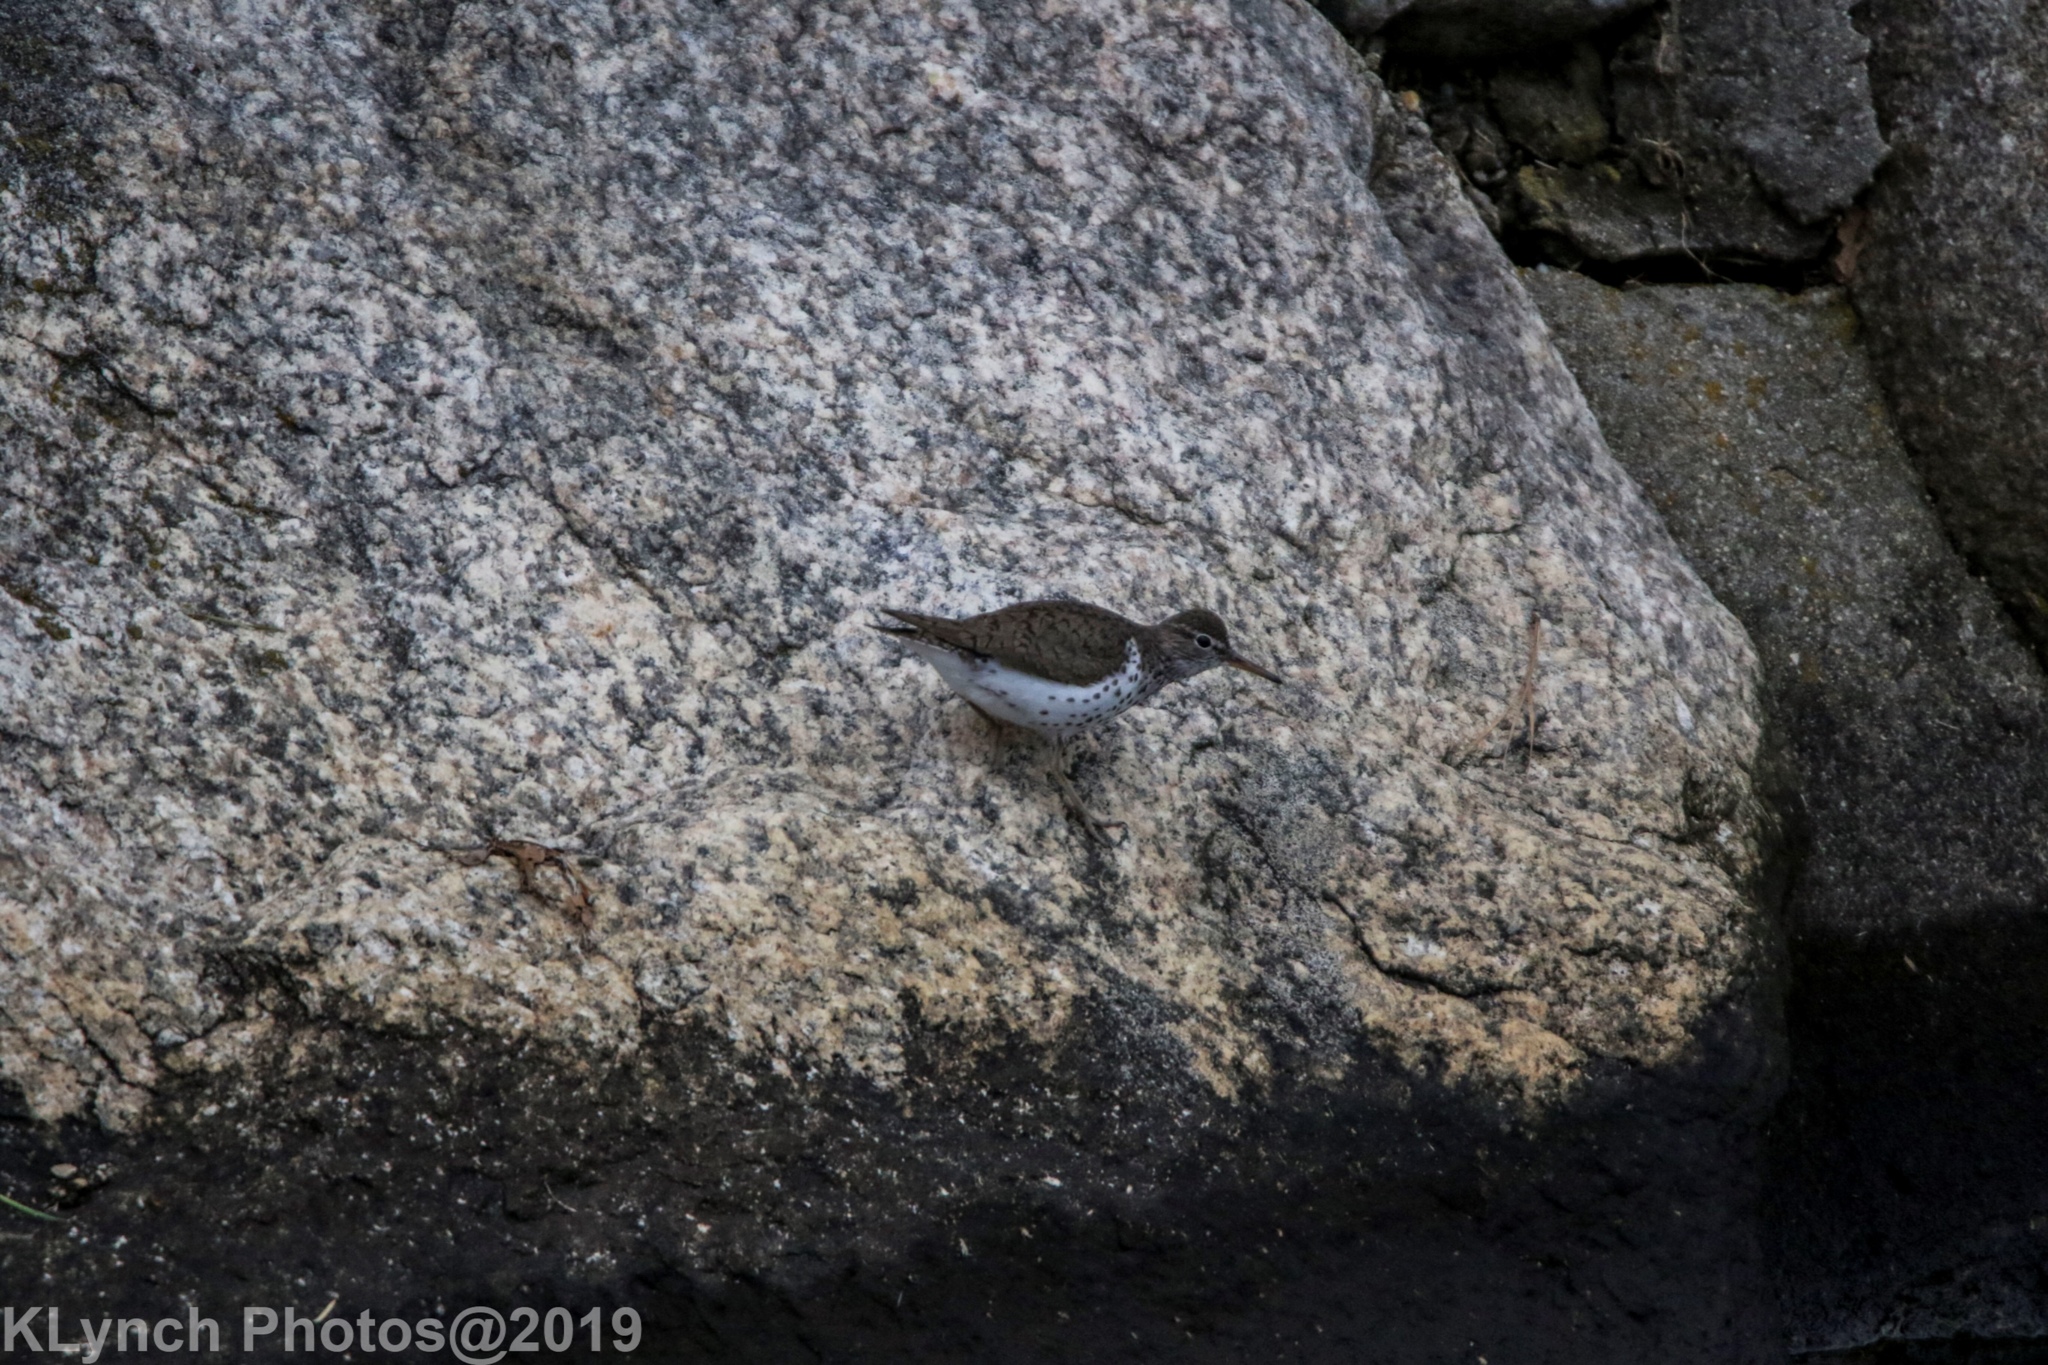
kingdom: Animalia
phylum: Chordata
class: Aves
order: Charadriiformes
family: Scolopacidae
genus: Actitis
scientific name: Actitis macularius
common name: Spotted sandpiper
